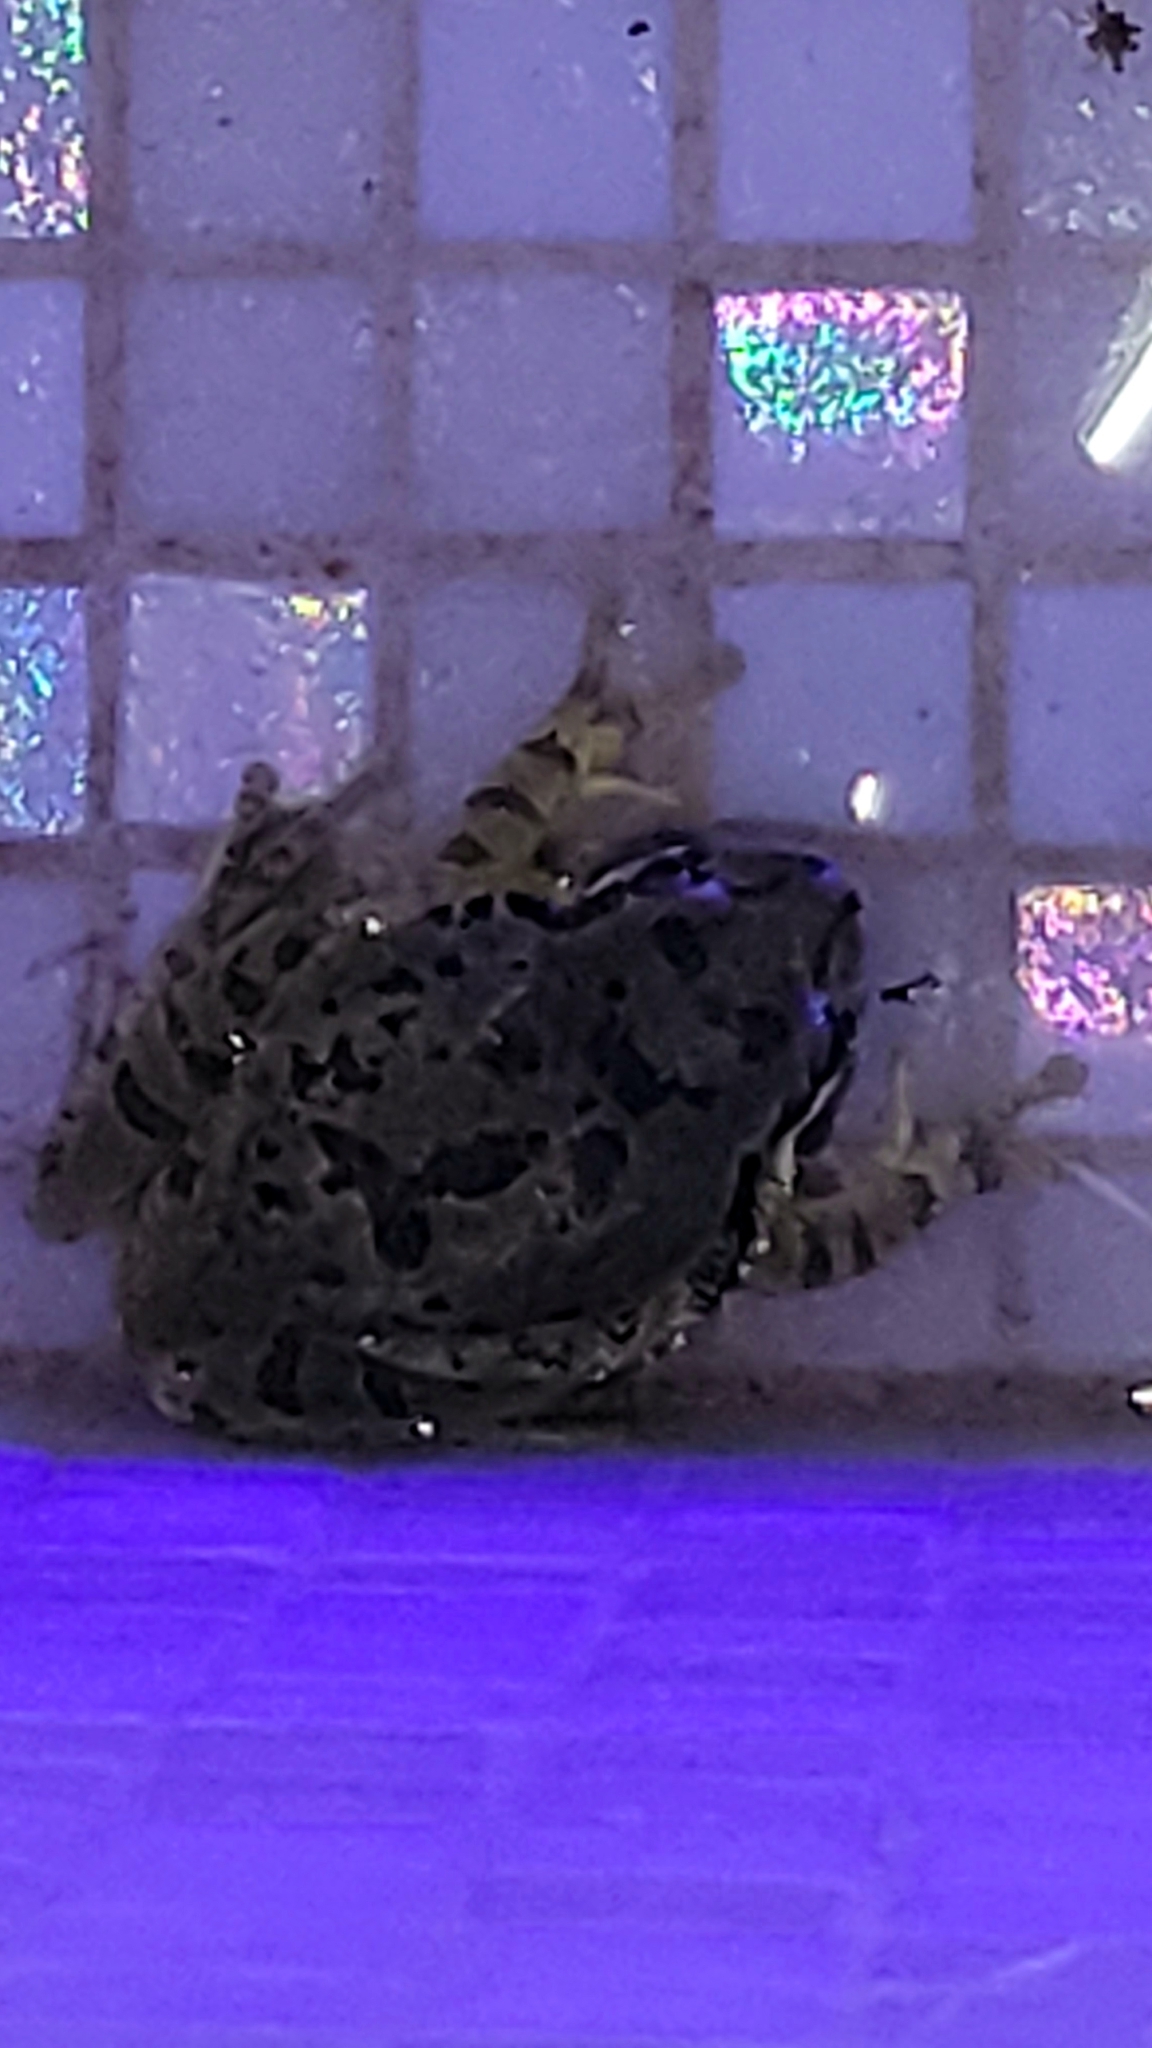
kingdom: Animalia
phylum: Chordata
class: Amphibia
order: Anura
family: Hylidae
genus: Smilisca
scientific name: Smilisca baudinii
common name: Mexican smilisca
